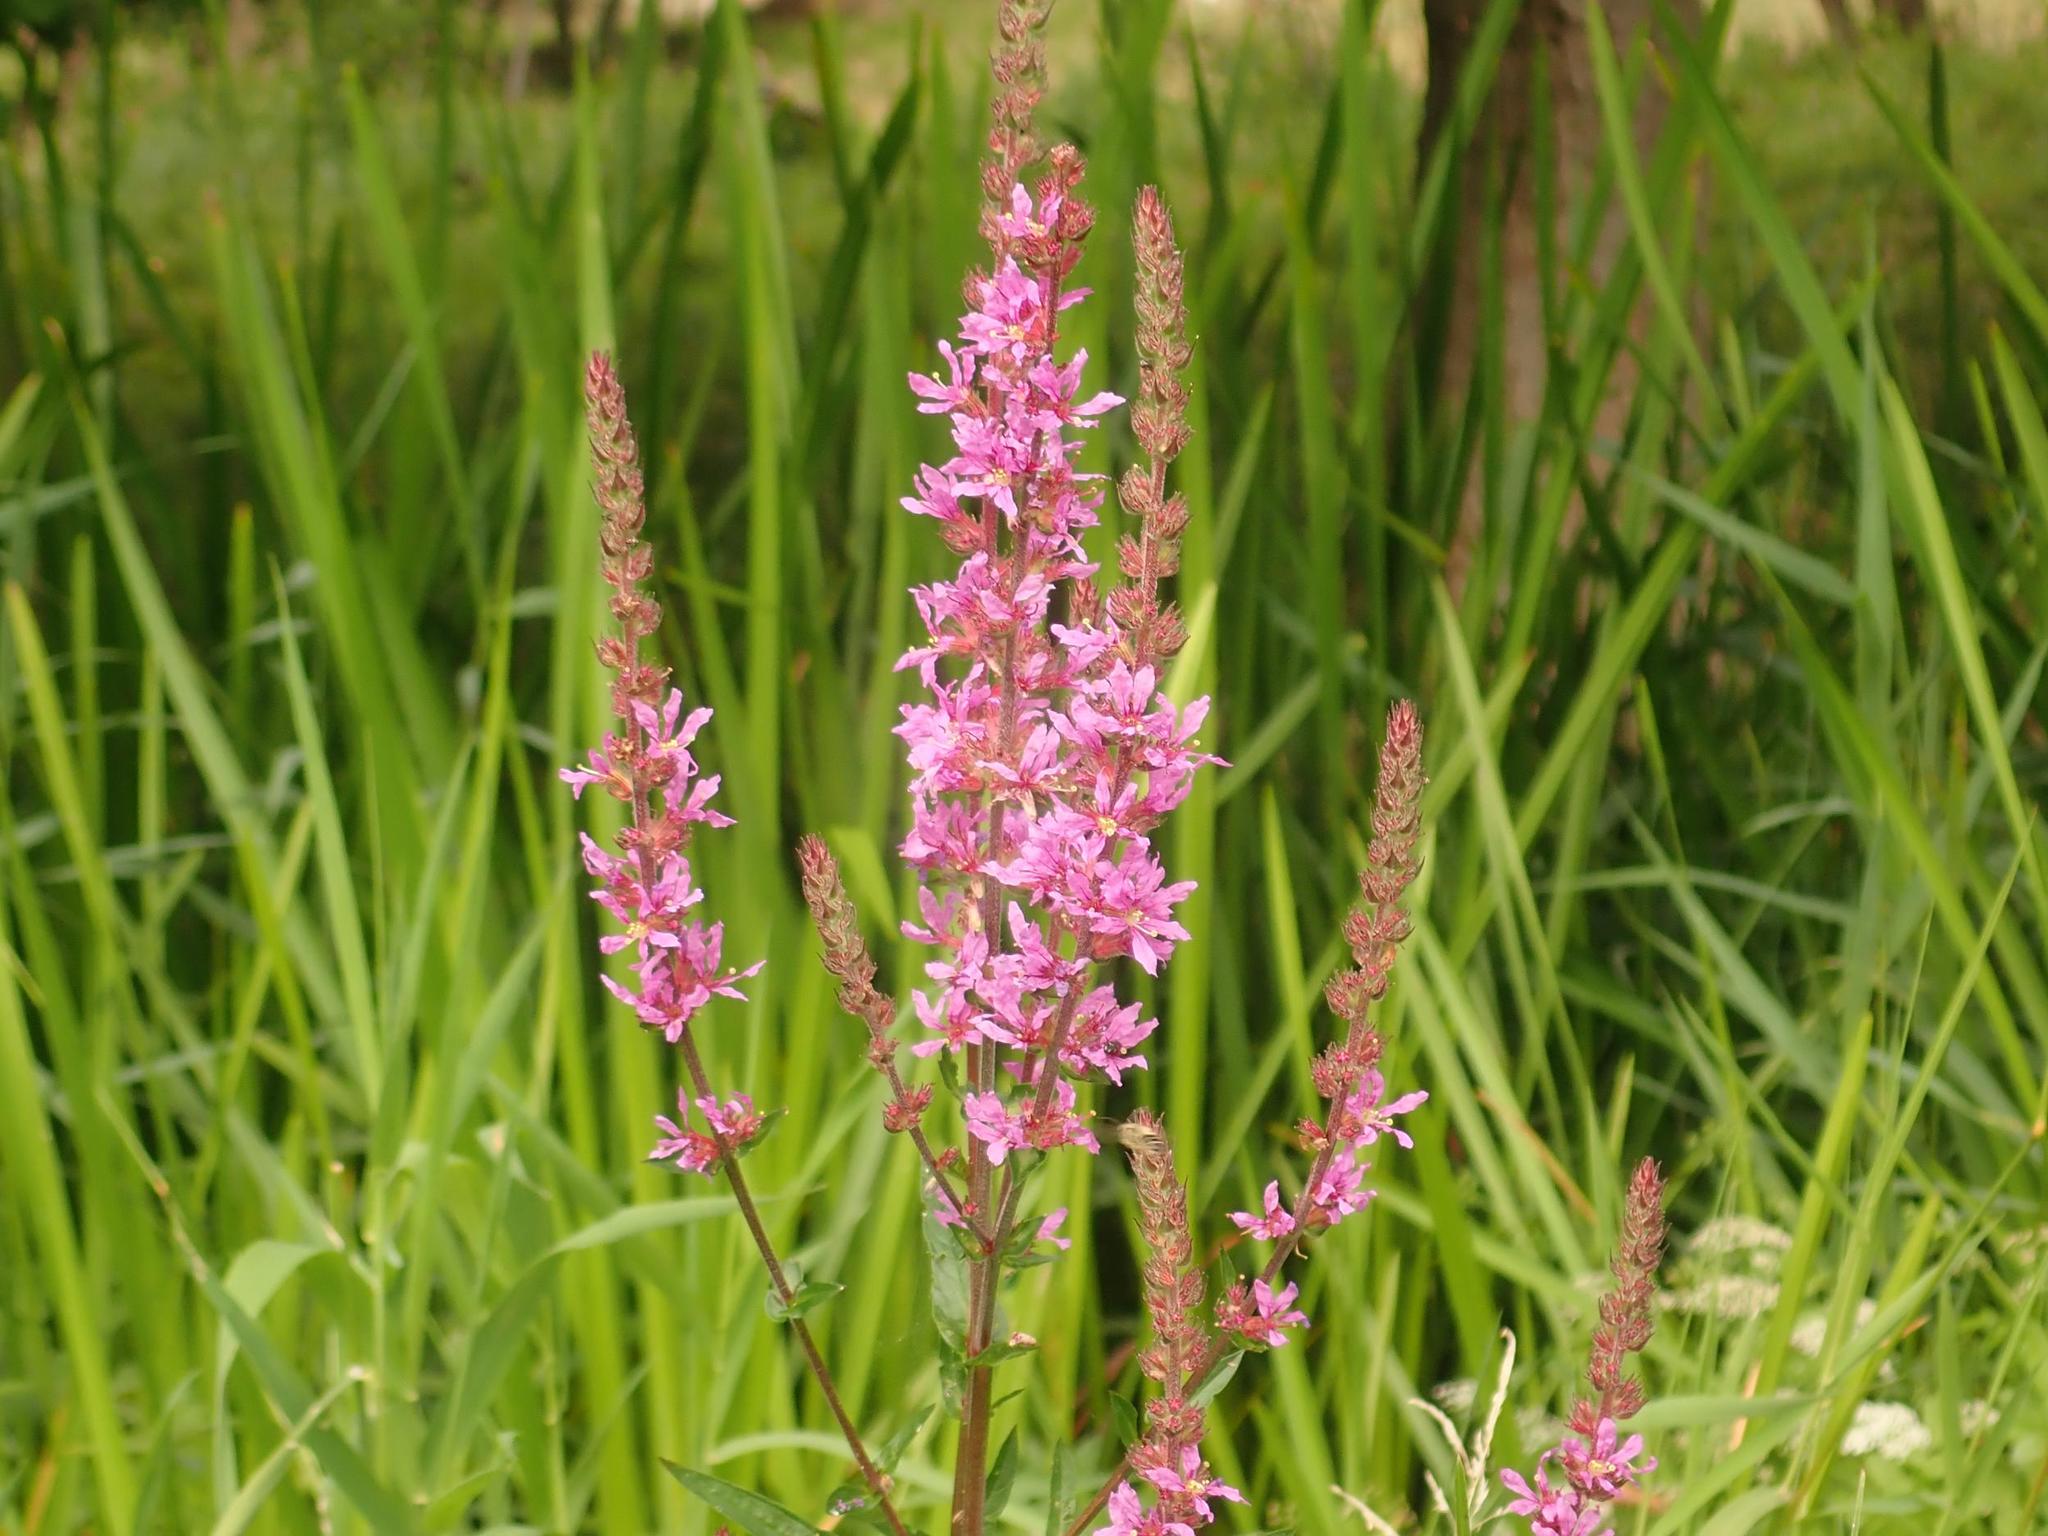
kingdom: Plantae
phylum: Tracheophyta
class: Magnoliopsida
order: Myrtales
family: Lythraceae
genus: Lythrum
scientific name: Lythrum salicaria
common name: Purple loosestrife
